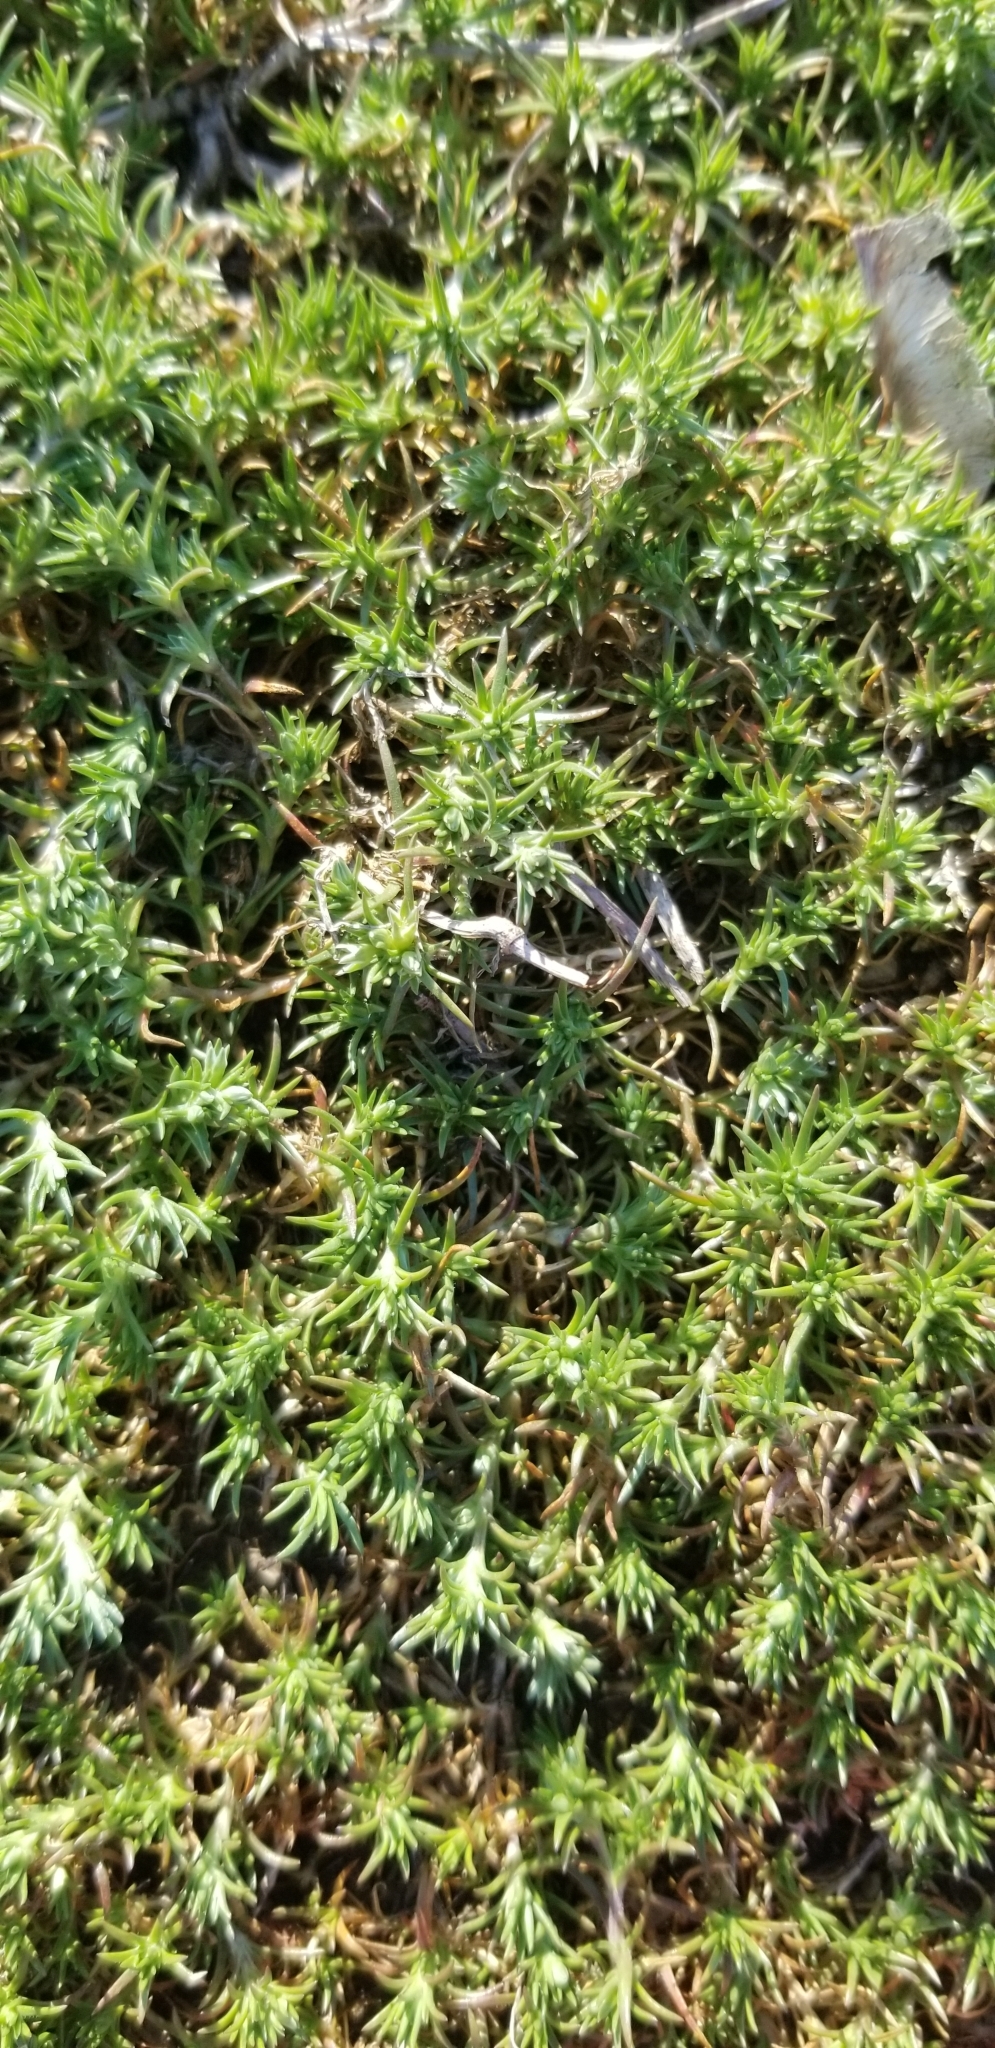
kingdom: Plantae
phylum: Tracheophyta
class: Magnoliopsida
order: Caryophyllales
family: Caryophyllaceae
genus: Scleranthus
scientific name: Scleranthus annuus
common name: Annual knawel
